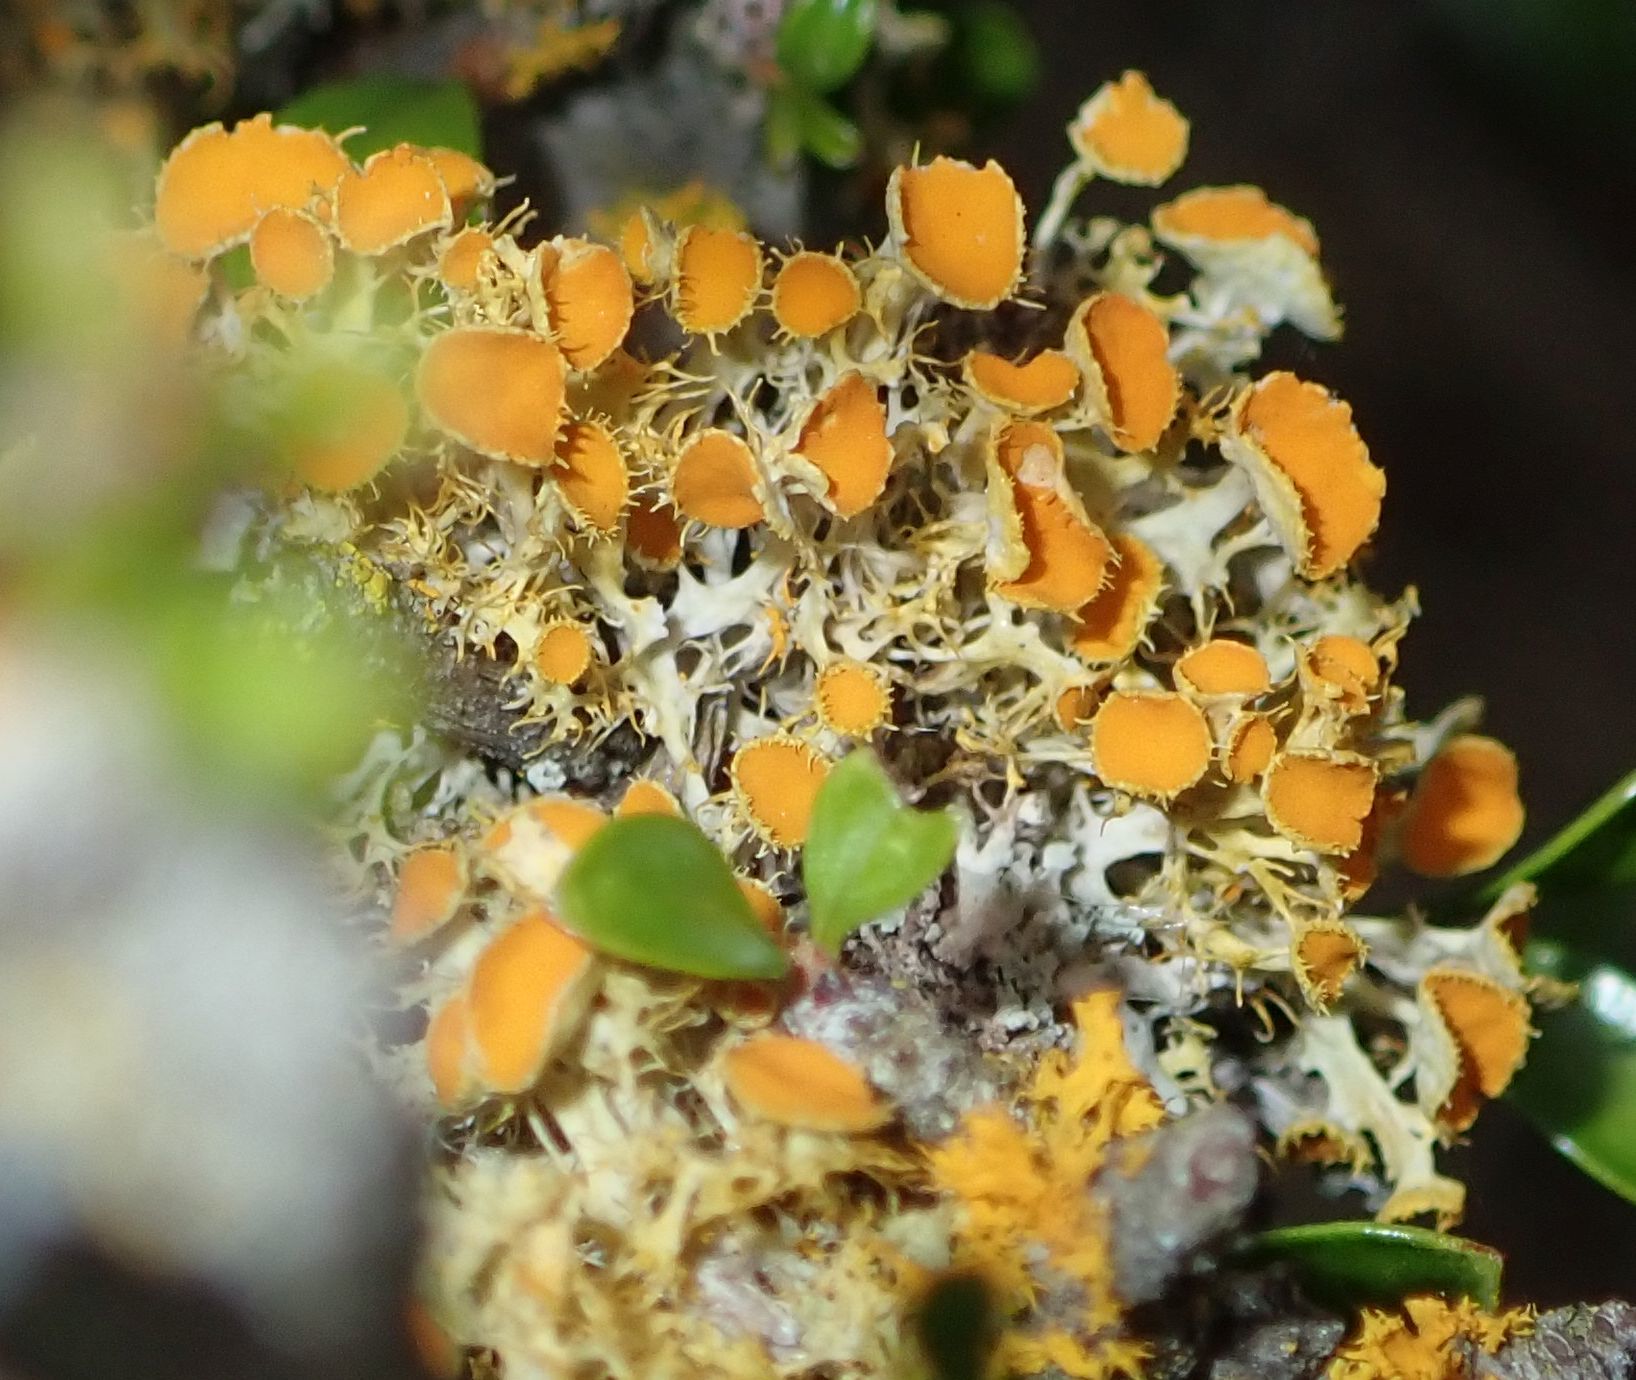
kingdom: Fungi
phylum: Ascomycota
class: Lecanoromycetes
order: Teloschistales
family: Teloschistaceae
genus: Niorma
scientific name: Niorma chrysophthalma
